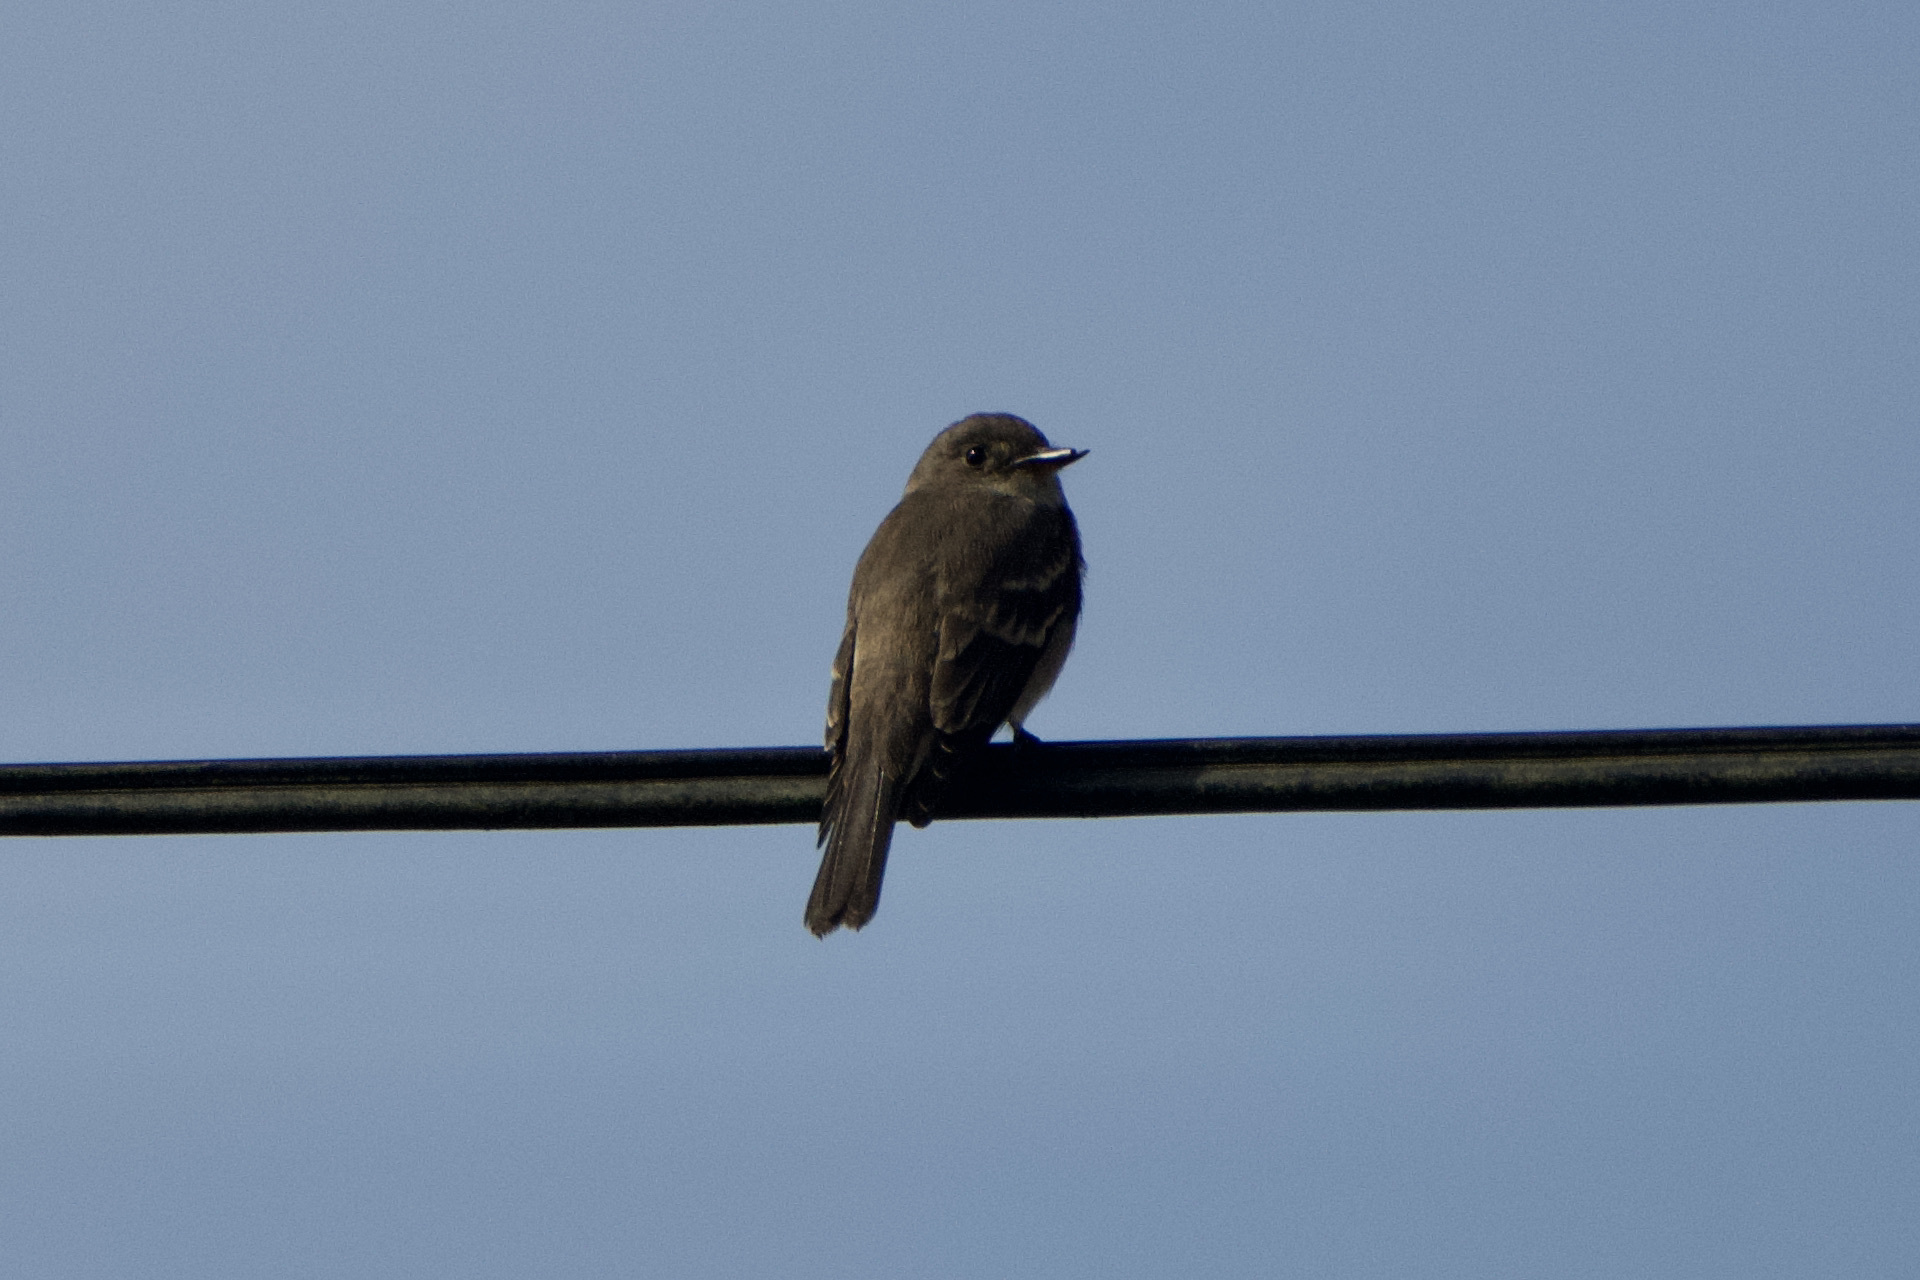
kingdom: Animalia
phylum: Chordata
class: Aves
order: Passeriformes
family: Tyrannidae
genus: Contopus
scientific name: Contopus sordidulus
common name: Western wood-pewee
